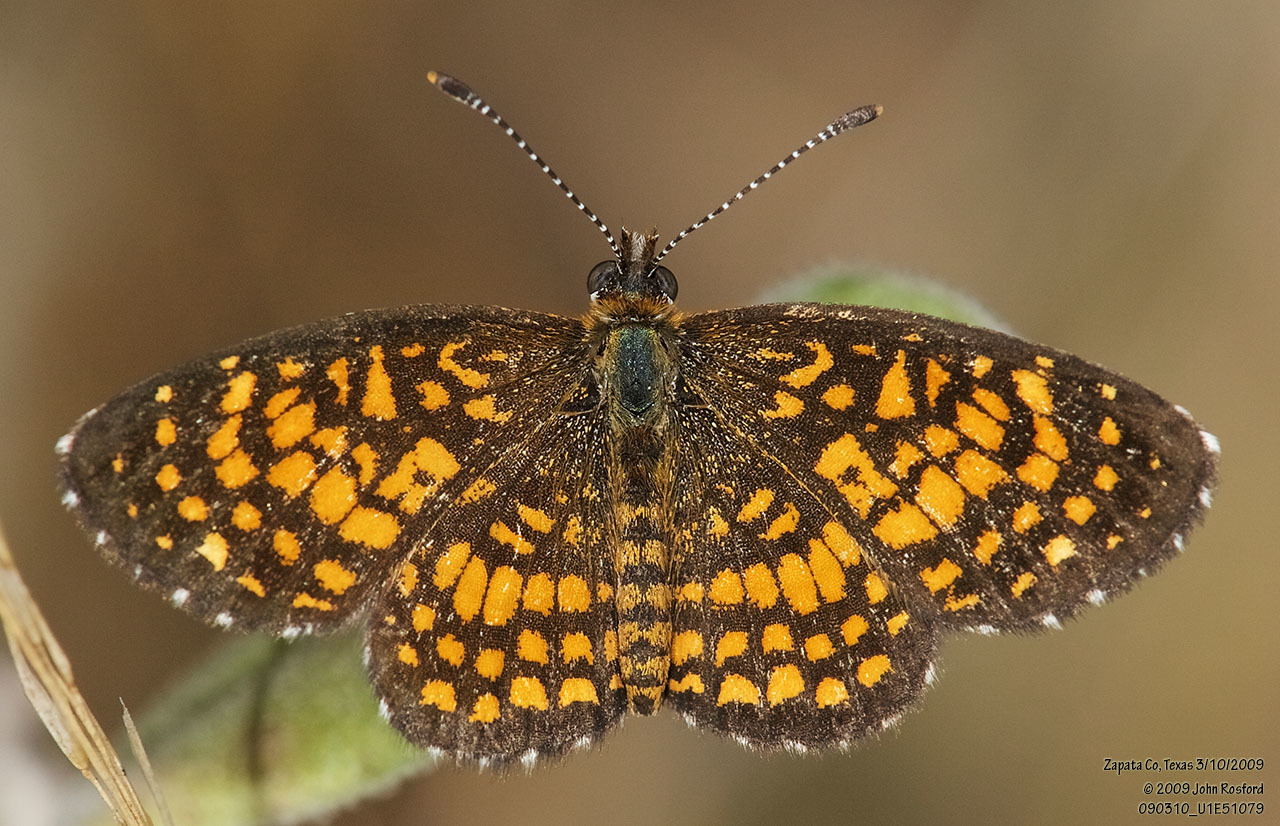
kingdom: Animalia
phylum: Arthropoda
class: Insecta
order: Lepidoptera
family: Nymphalidae
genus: Texola
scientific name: Texola elada
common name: Elada checkerspot
